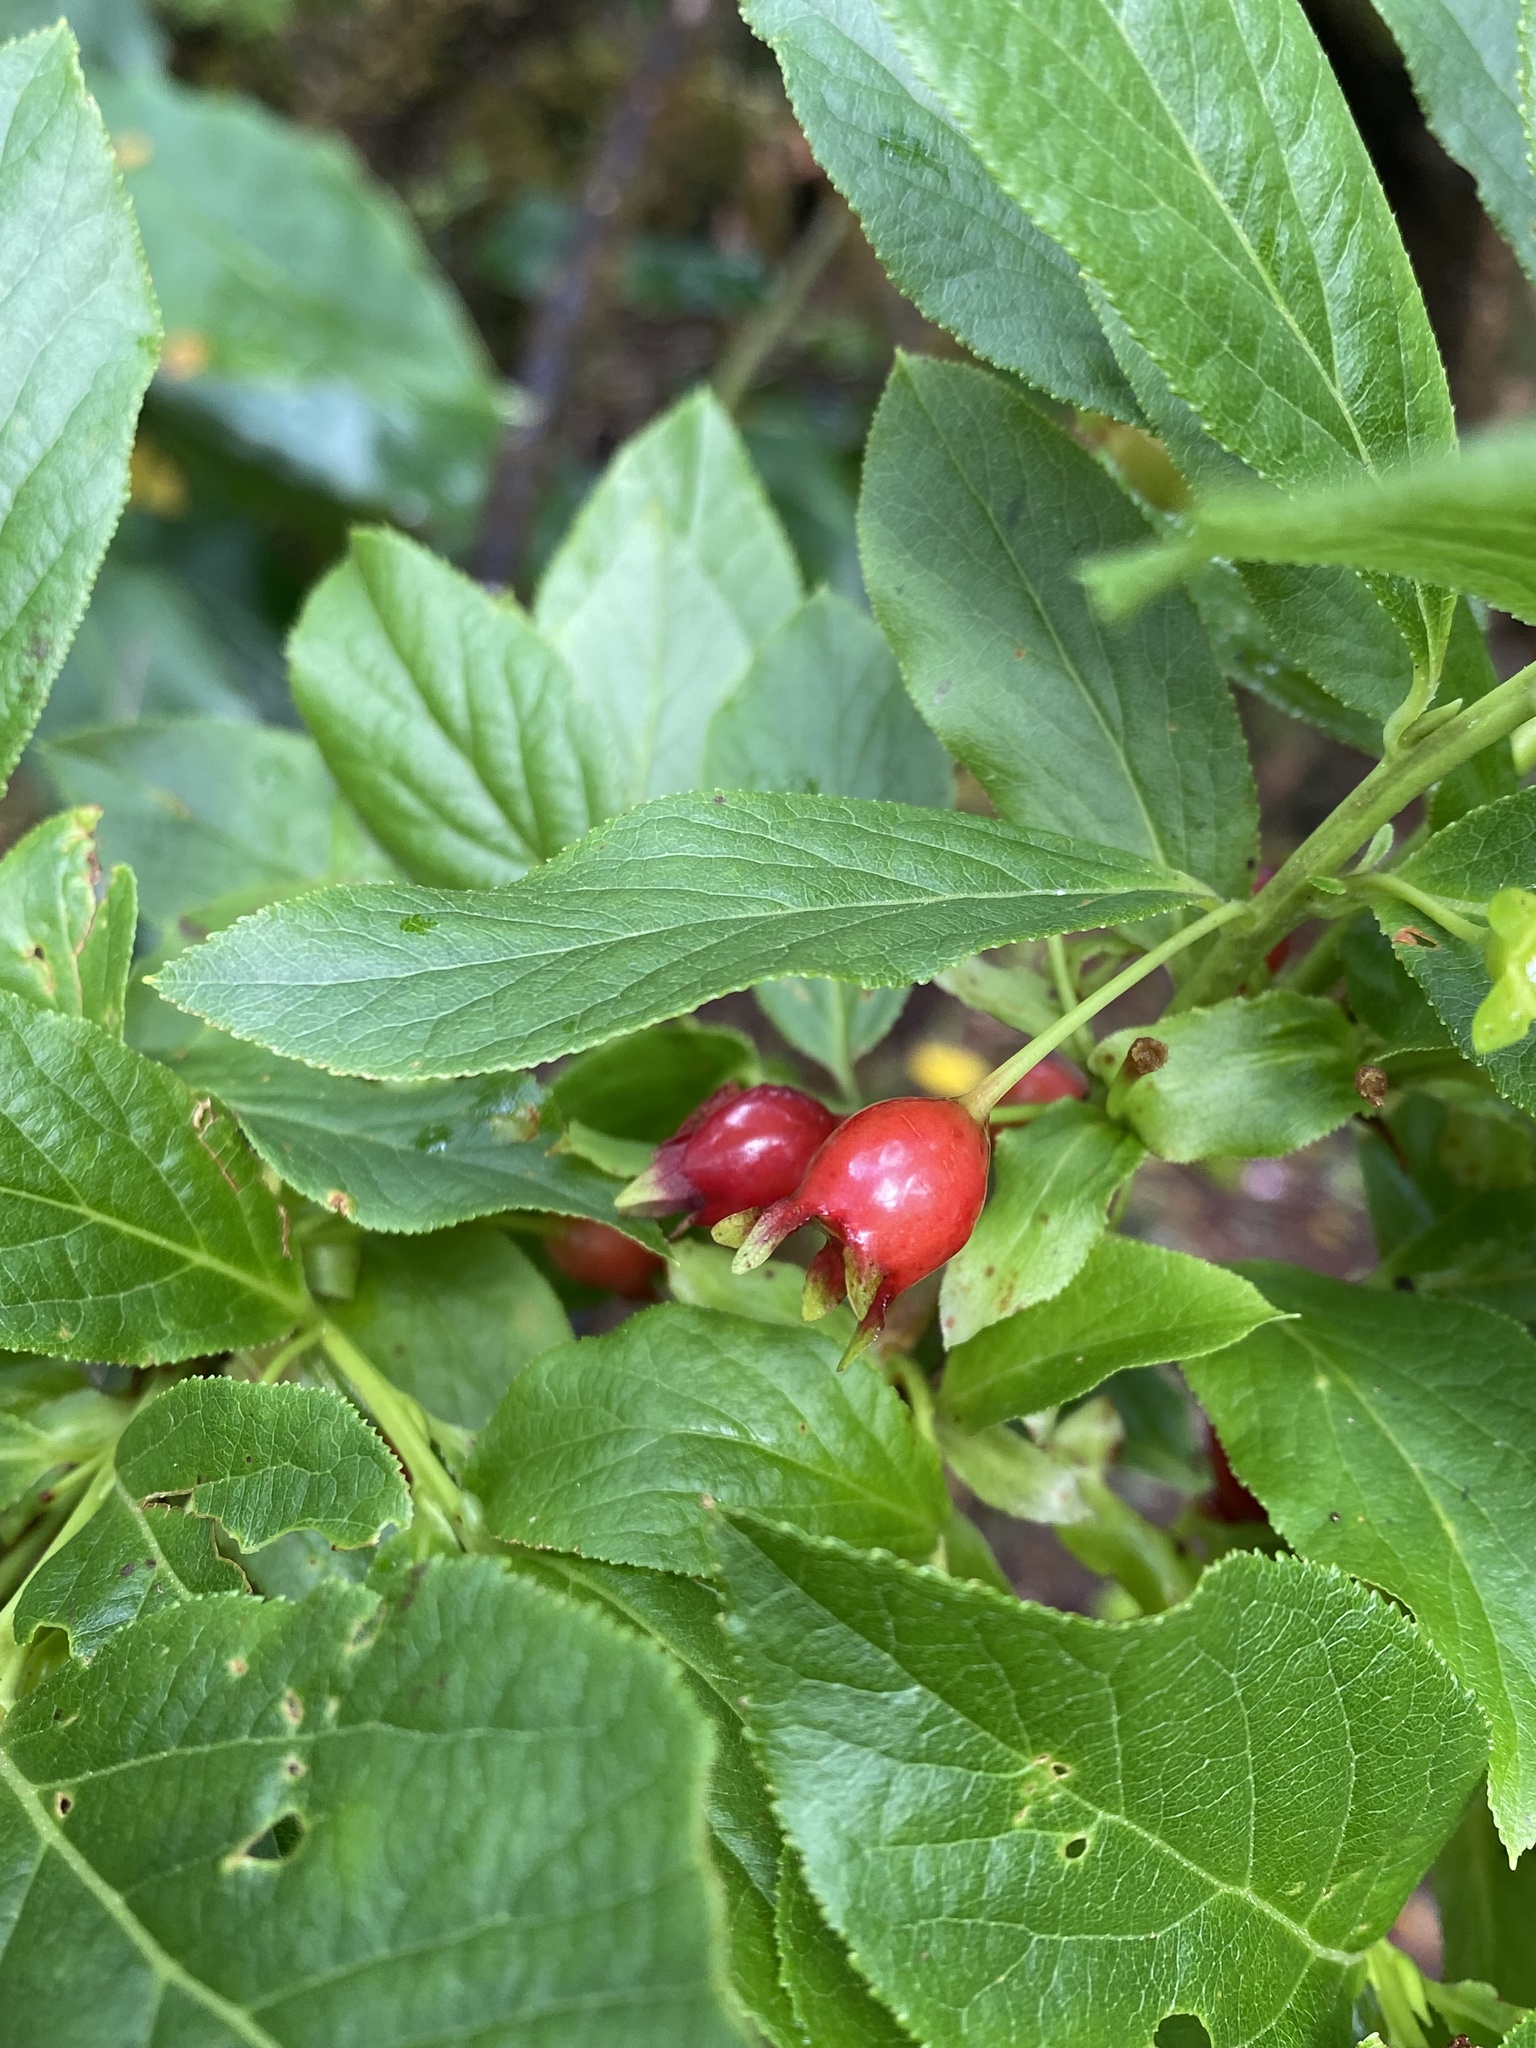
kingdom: Plantae
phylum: Tracheophyta
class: Magnoliopsida
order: Ericales
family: Ericaceae
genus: Vaccinium
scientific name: Vaccinium calycinum
